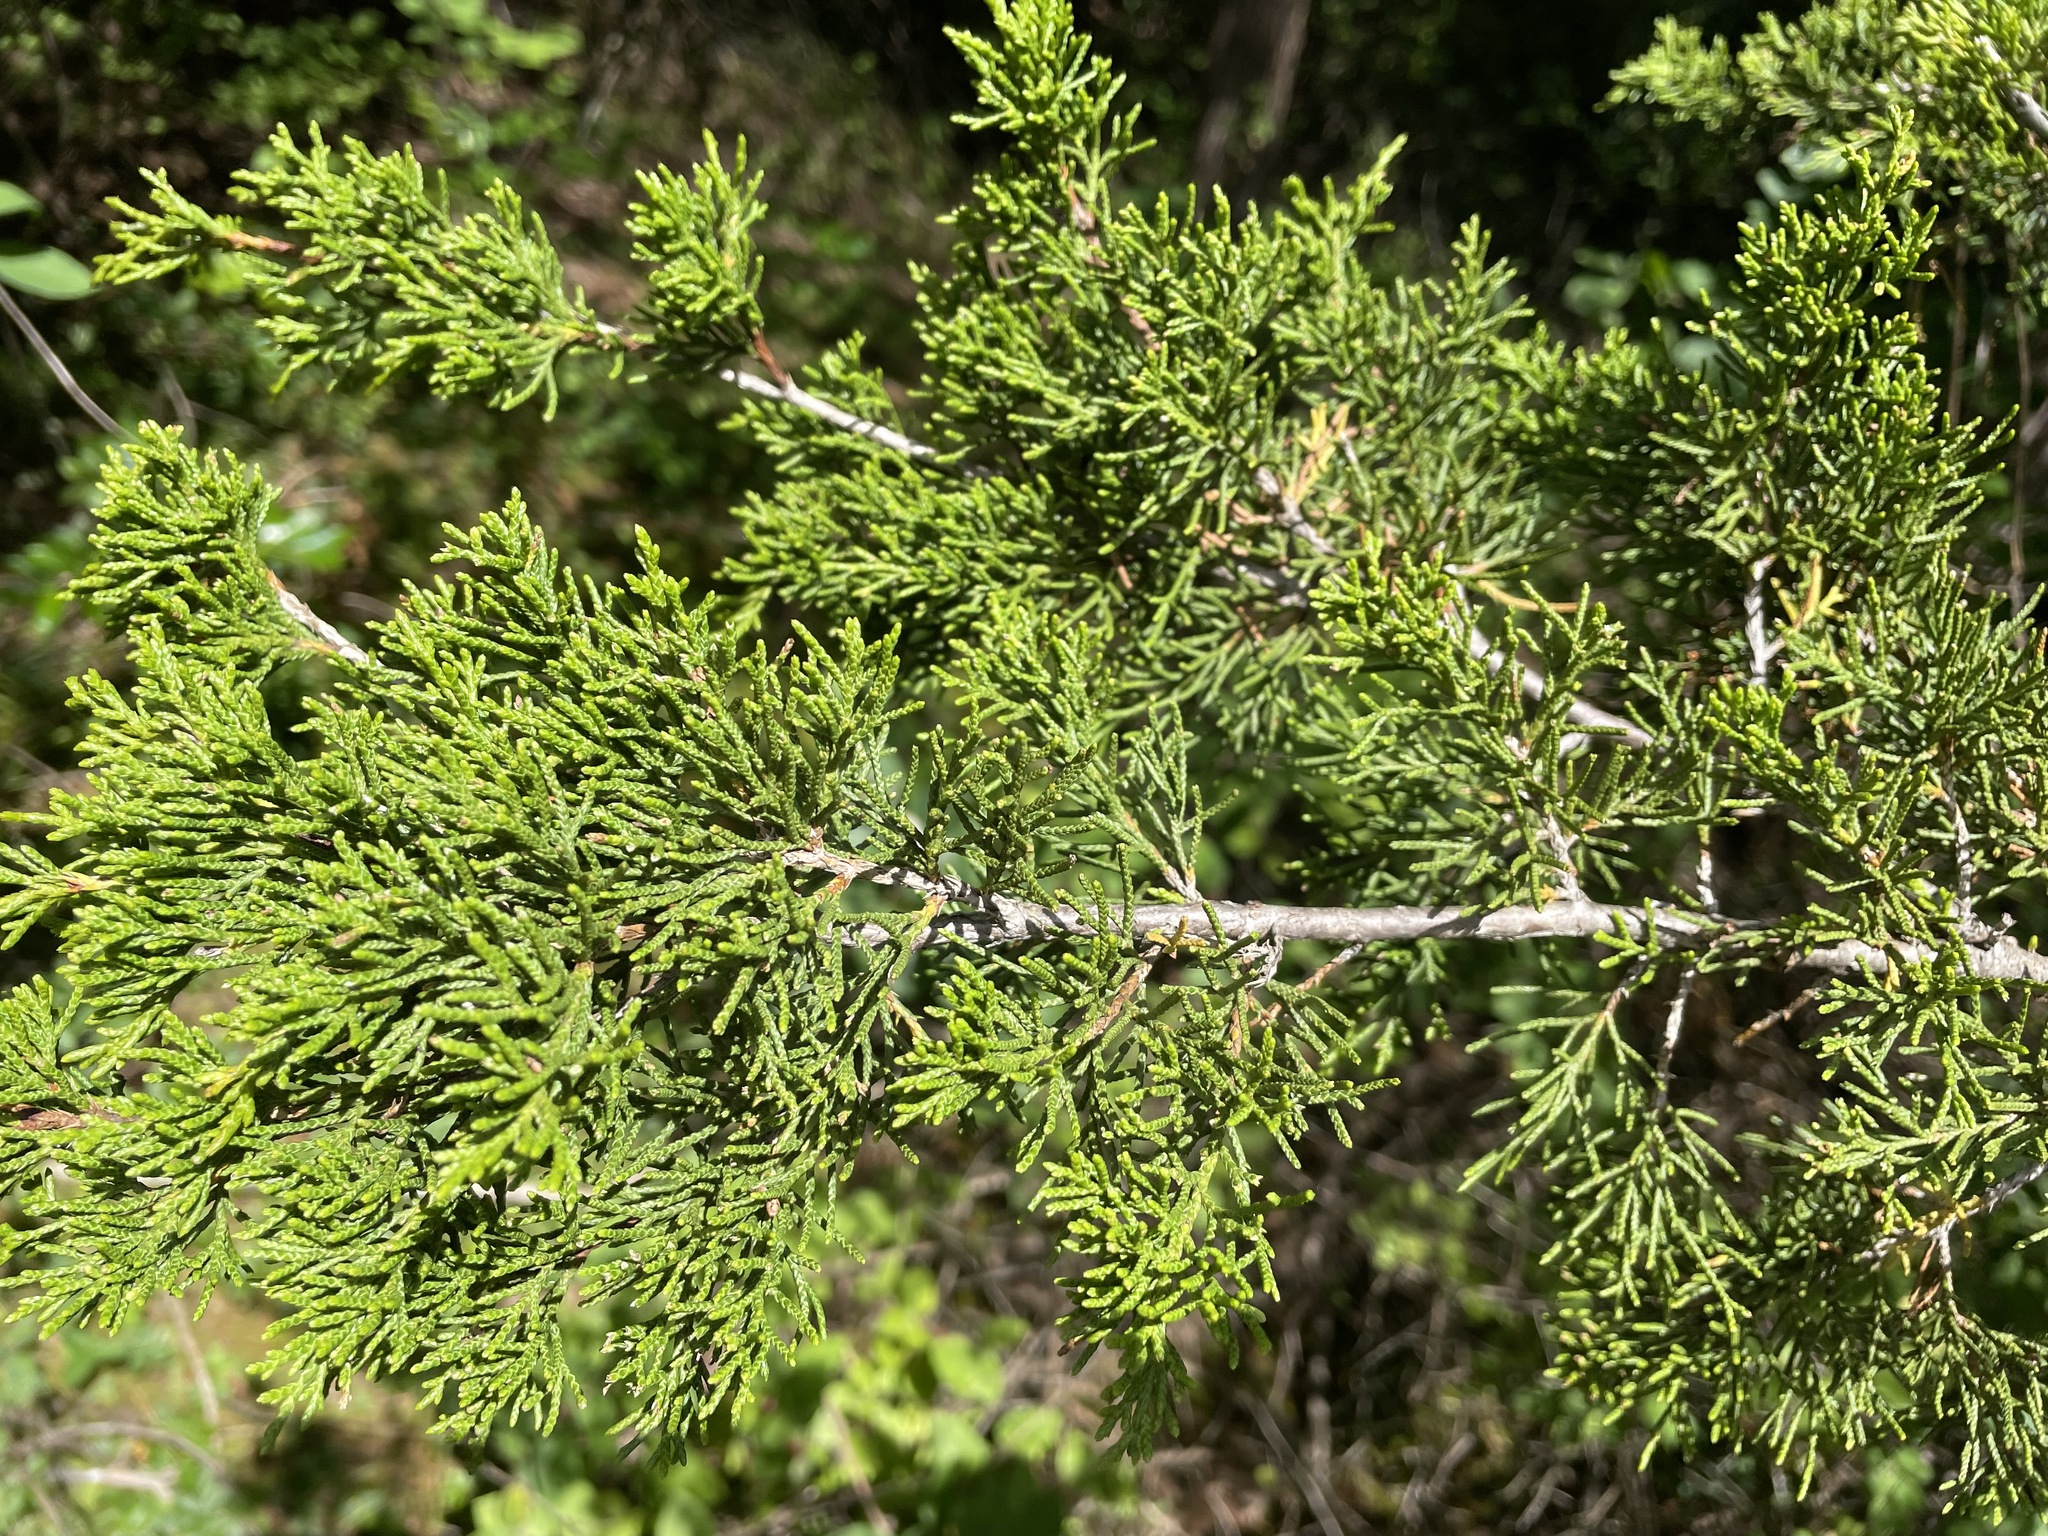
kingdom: Plantae
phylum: Tracheophyta
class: Pinopsida
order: Pinales
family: Cupressaceae
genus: Juniperus
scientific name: Juniperus virginiana
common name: Red juniper
